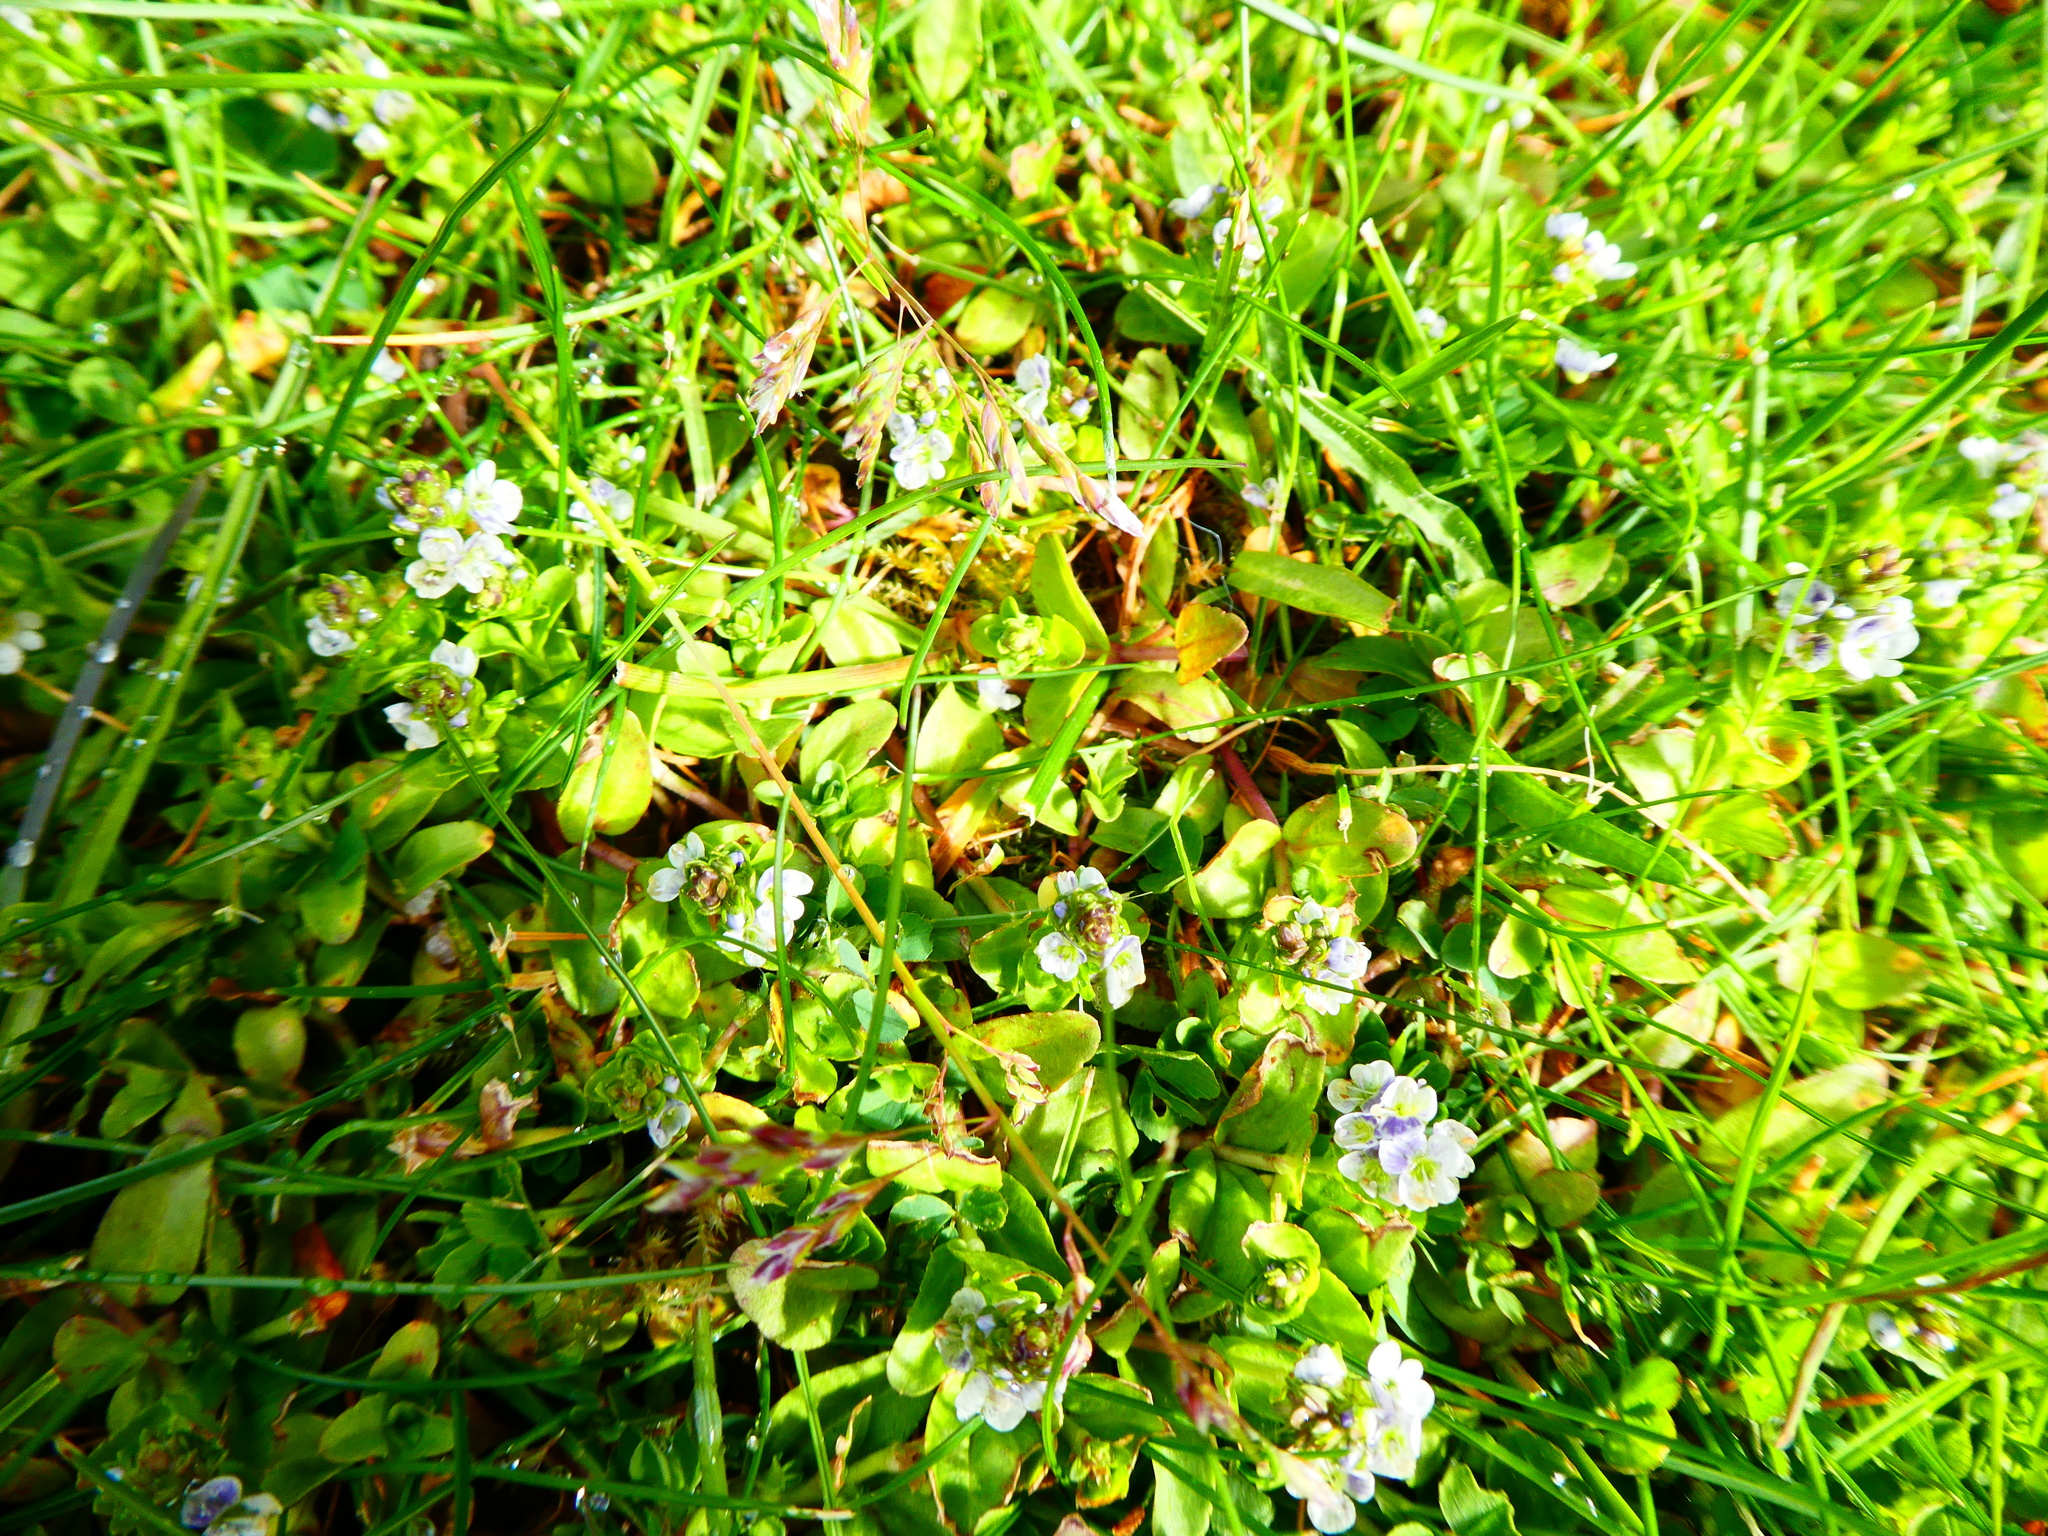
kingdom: Plantae
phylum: Tracheophyta
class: Magnoliopsida
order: Lamiales
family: Plantaginaceae
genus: Veronica
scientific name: Veronica serpyllifolia
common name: Thyme-leaved speedwell
